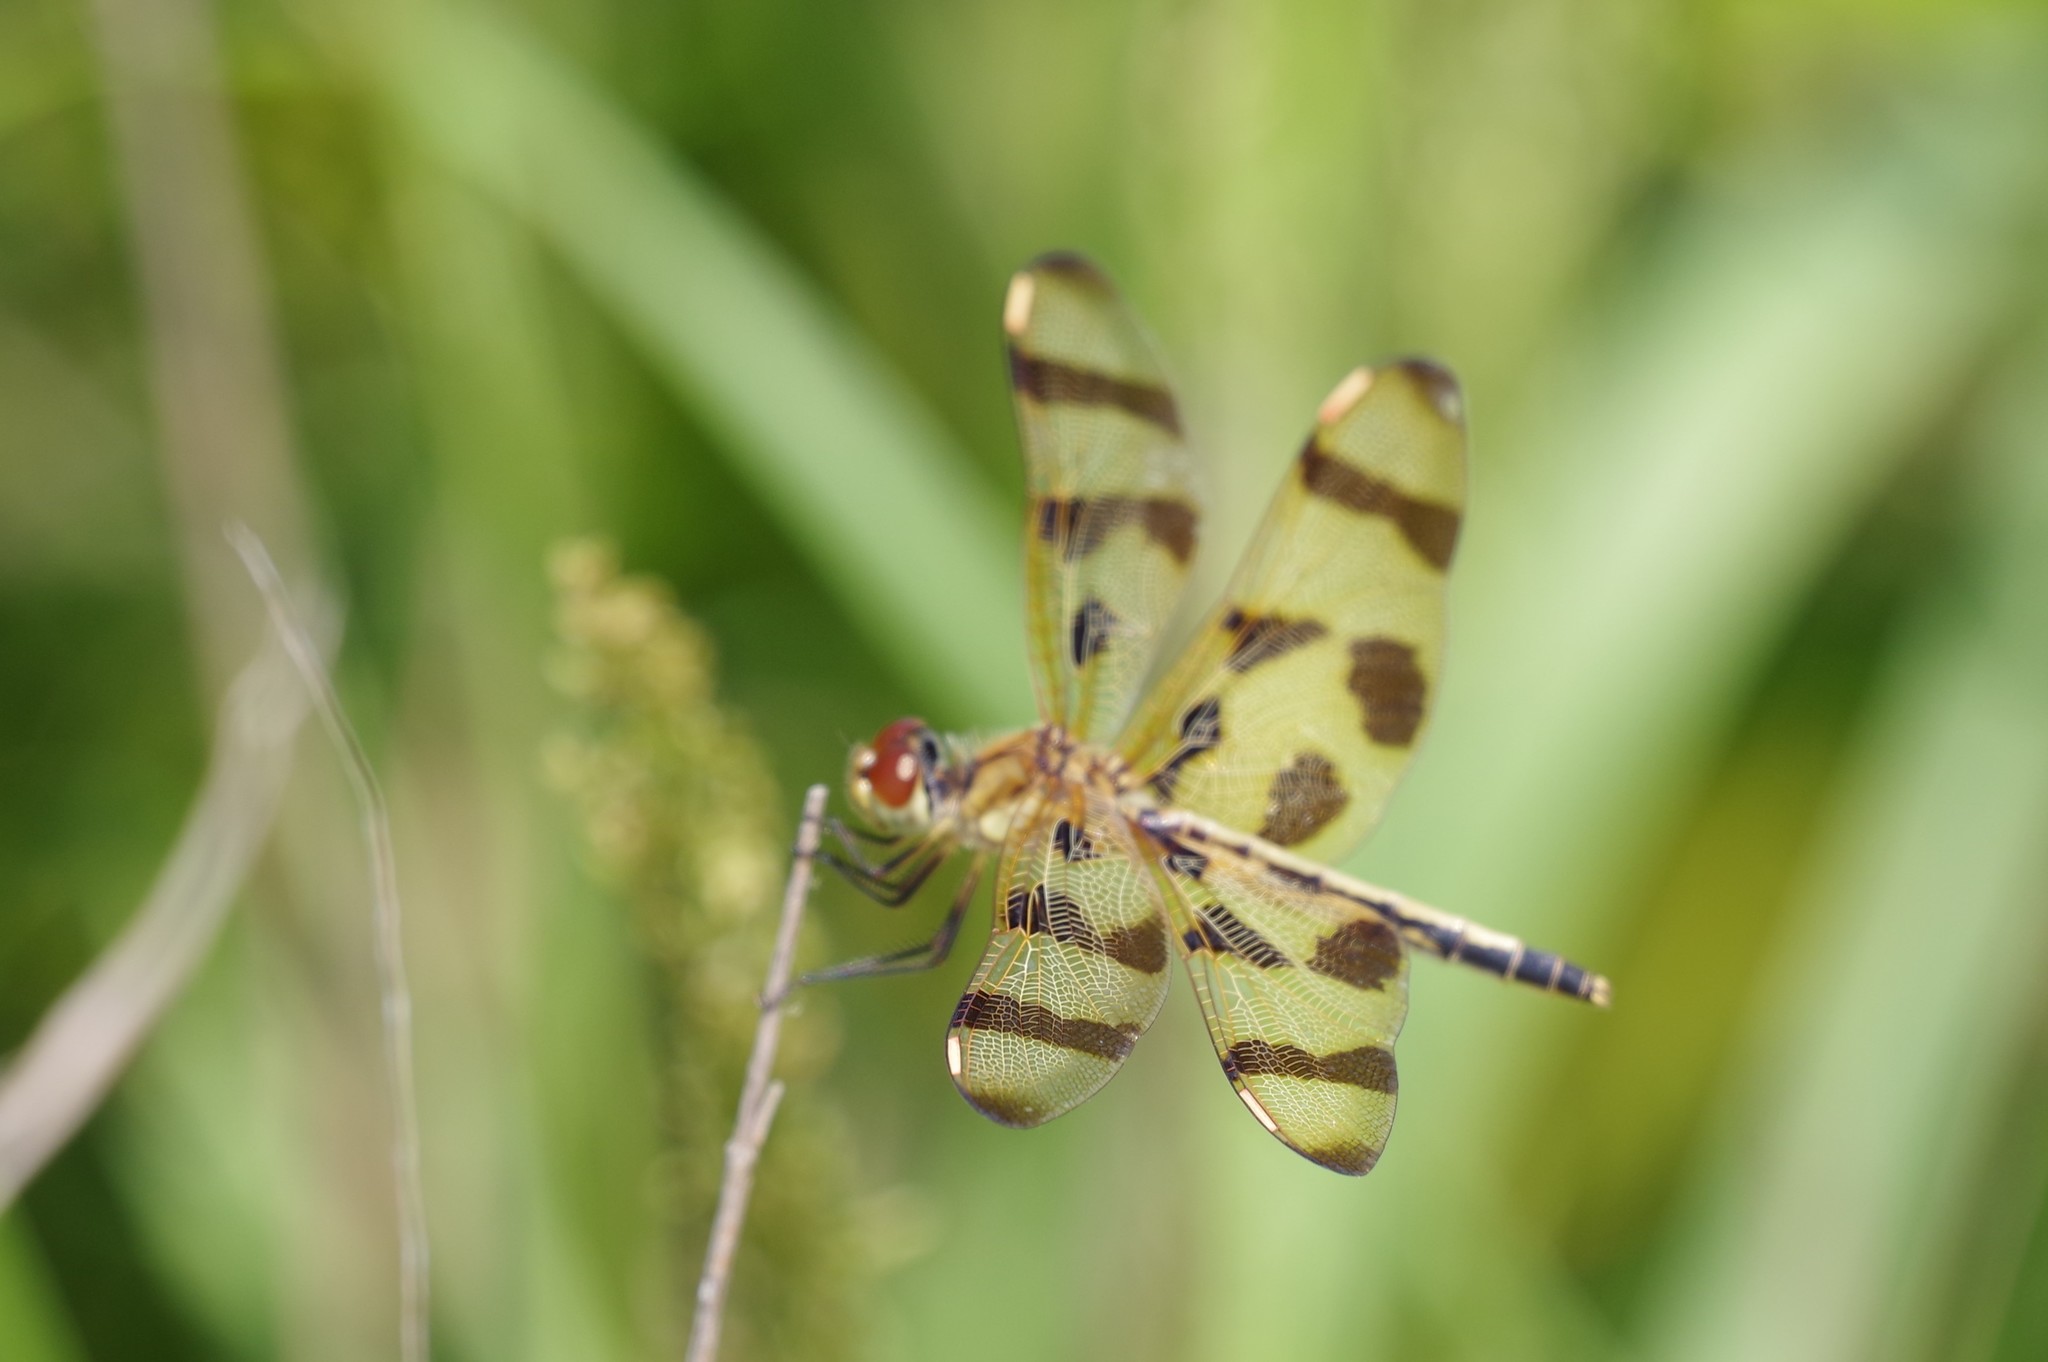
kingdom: Animalia
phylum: Arthropoda
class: Insecta
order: Odonata
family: Libellulidae
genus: Celithemis
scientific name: Celithemis eponina
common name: Halloween pennant
